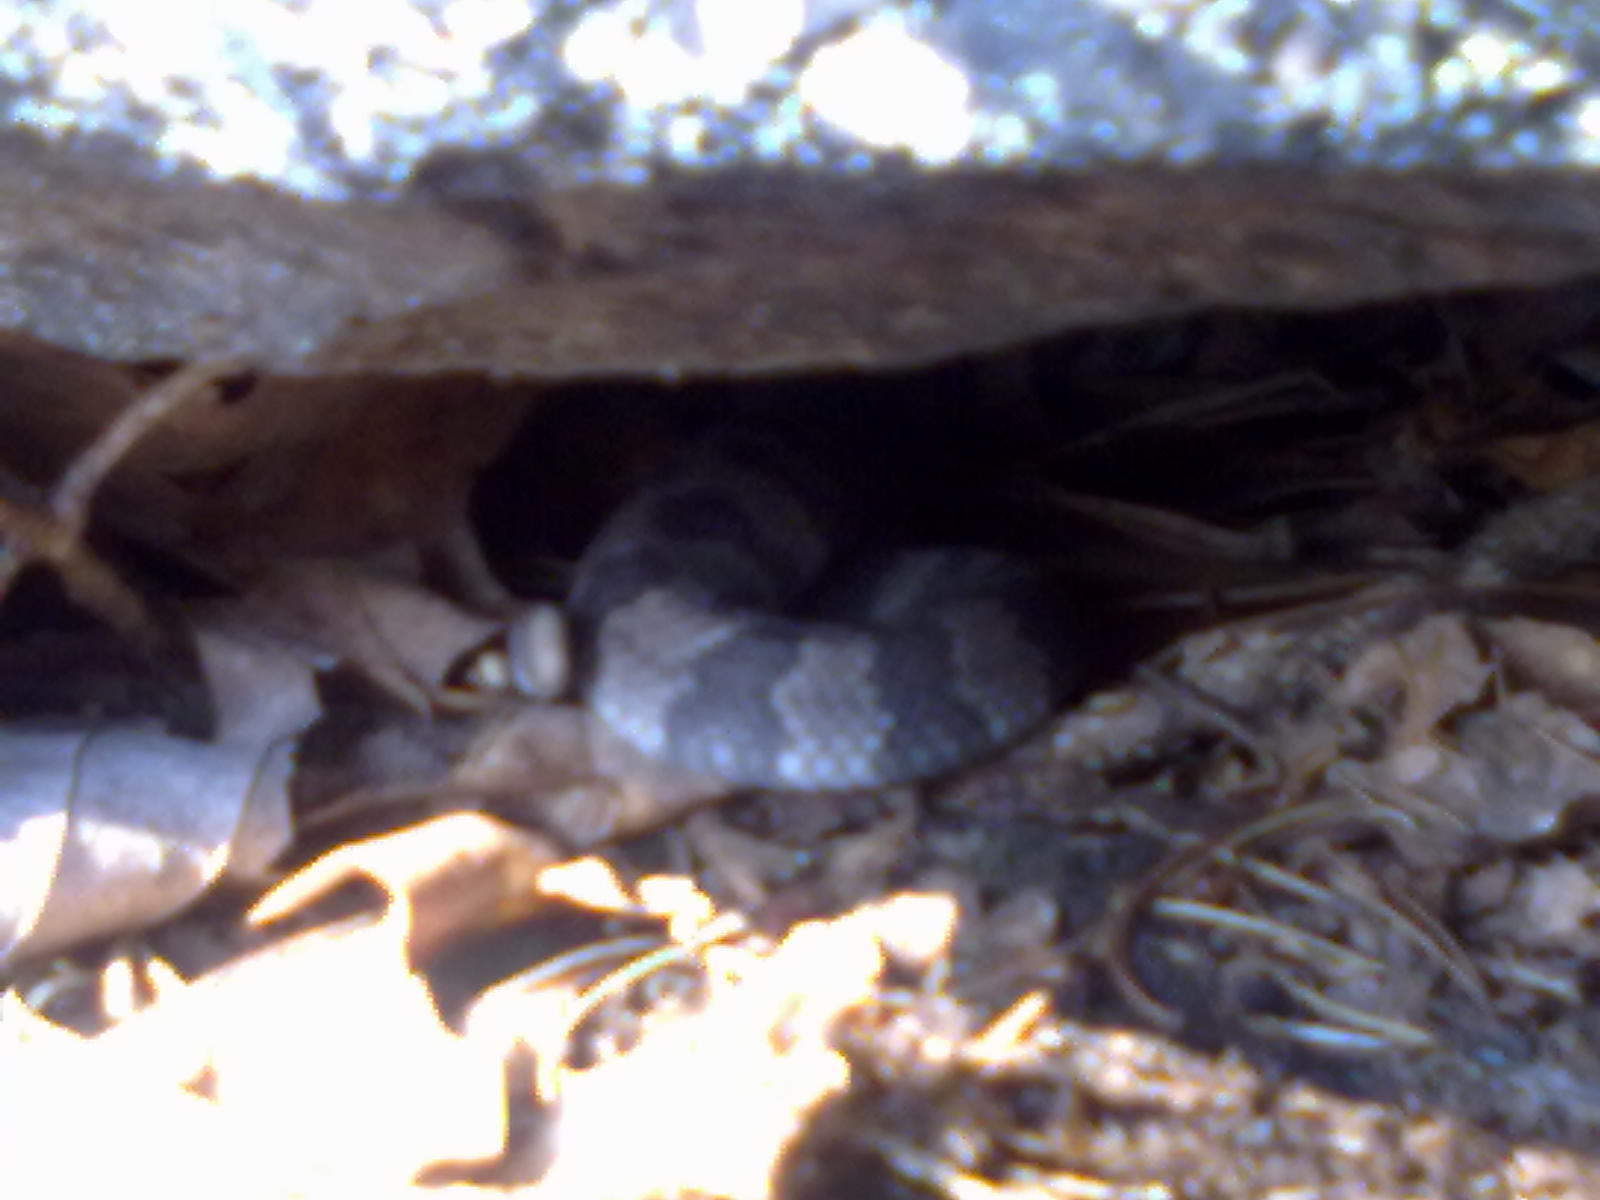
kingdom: Animalia
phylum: Chordata
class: Squamata
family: Viperidae
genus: Crotalus
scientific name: Crotalus horridus
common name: Timber rattlesnake
